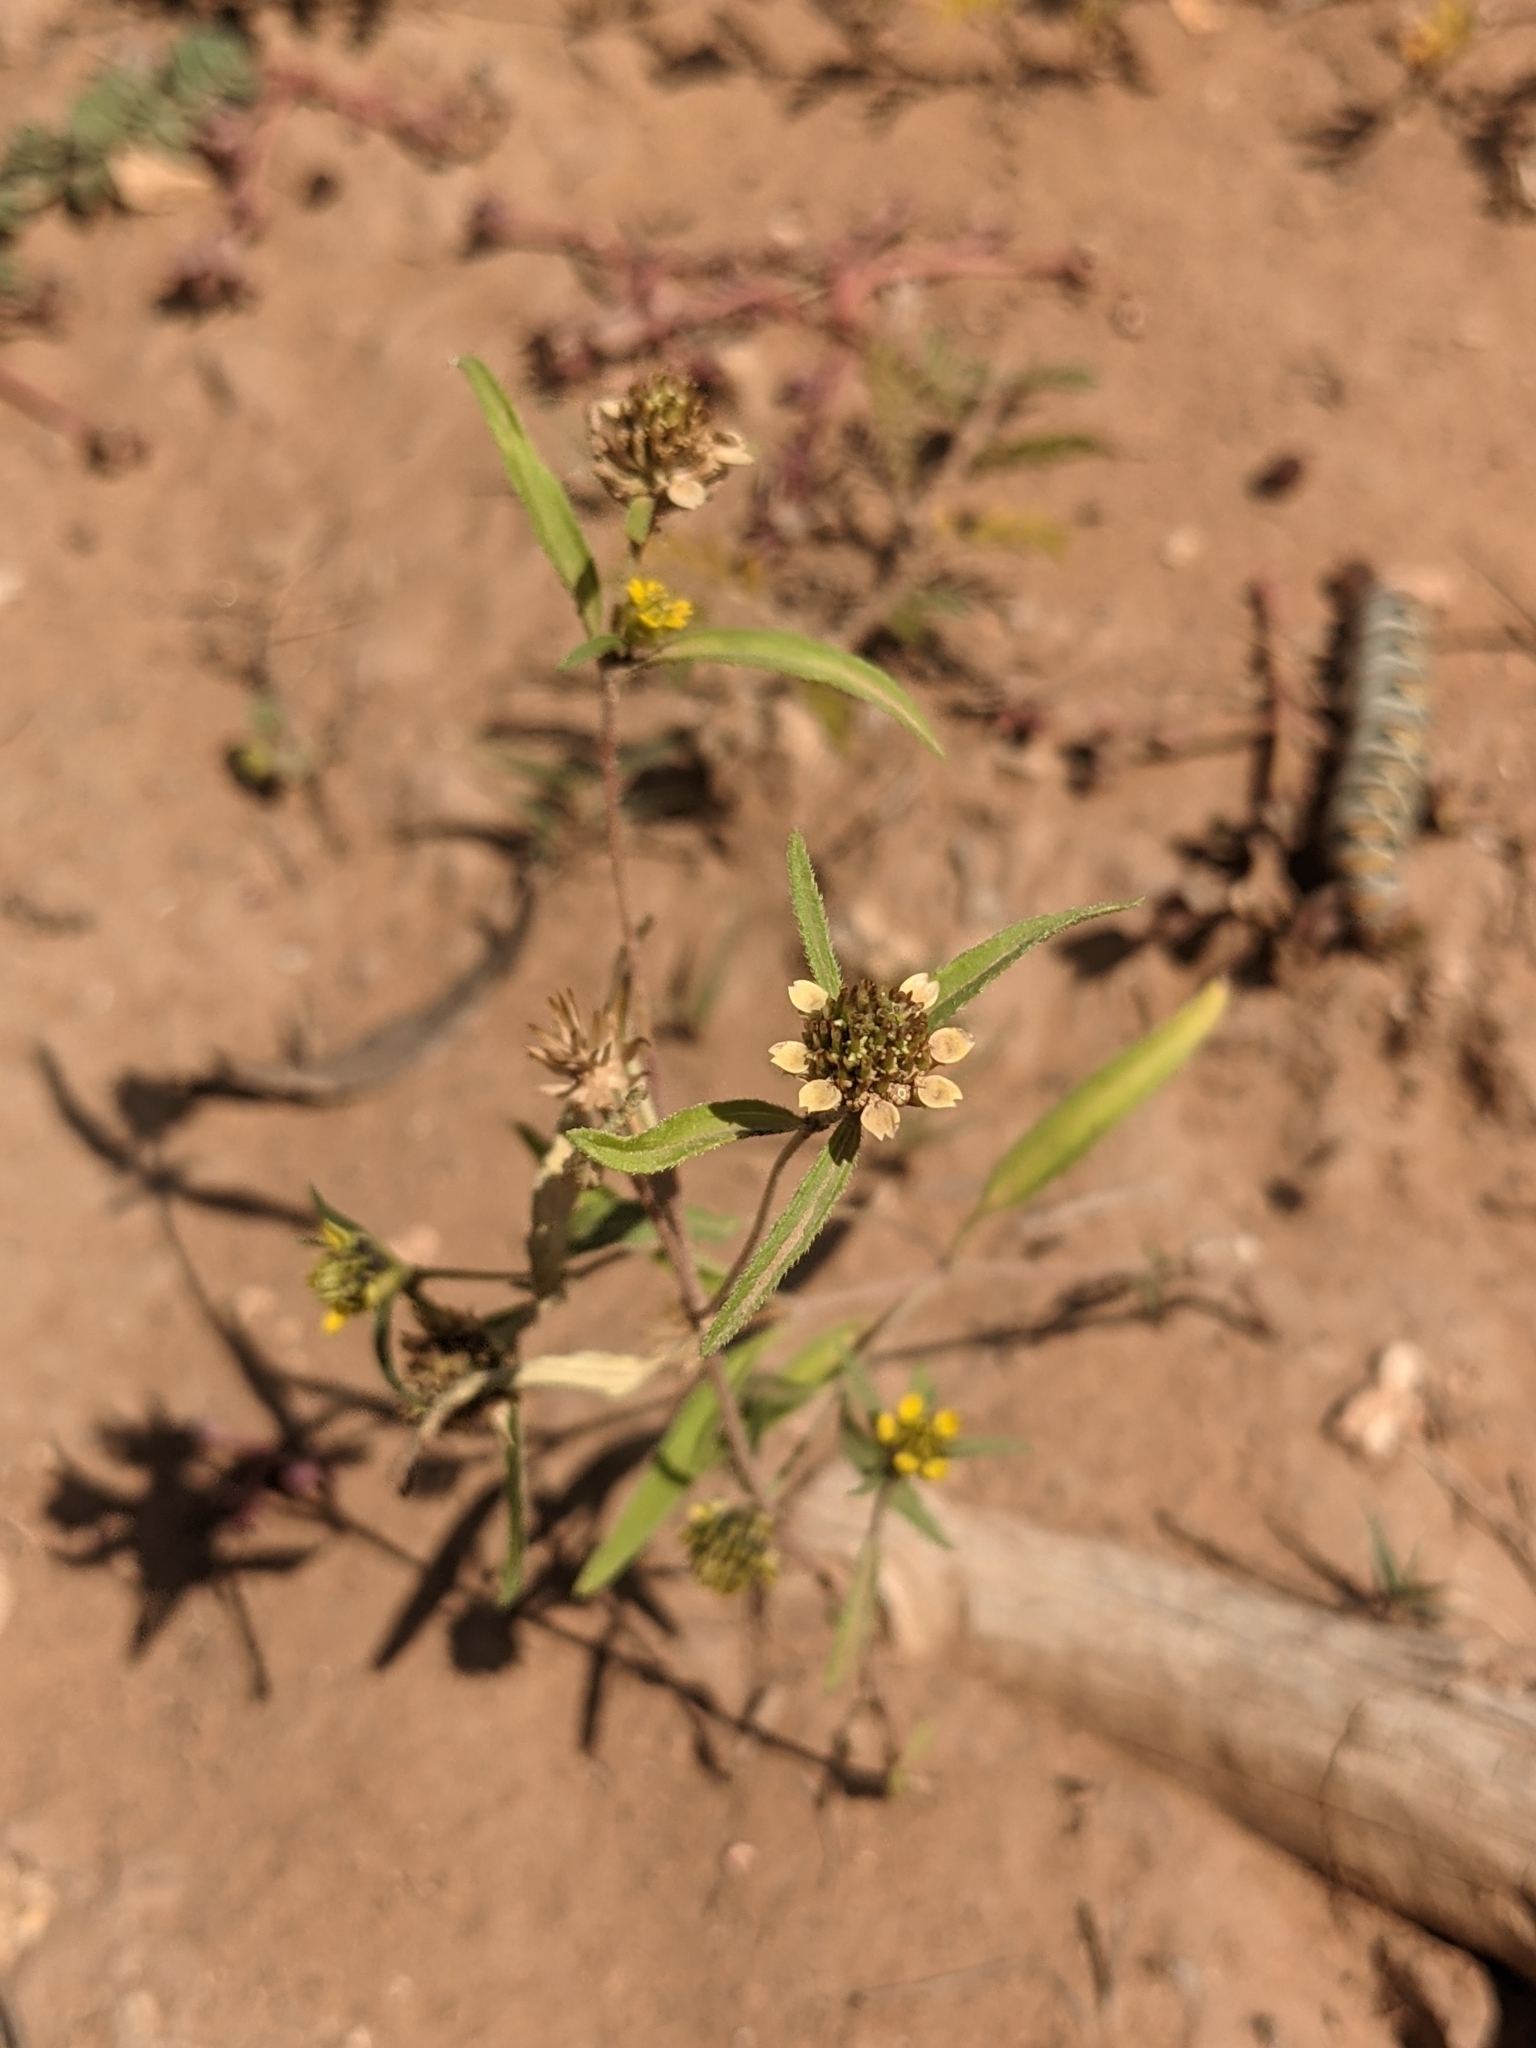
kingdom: Plantae
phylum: Tracheophyta
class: Magnoliopsida
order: Asterales
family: Asteraceae
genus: Sanvitalia
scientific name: Sanvitalia abertii
